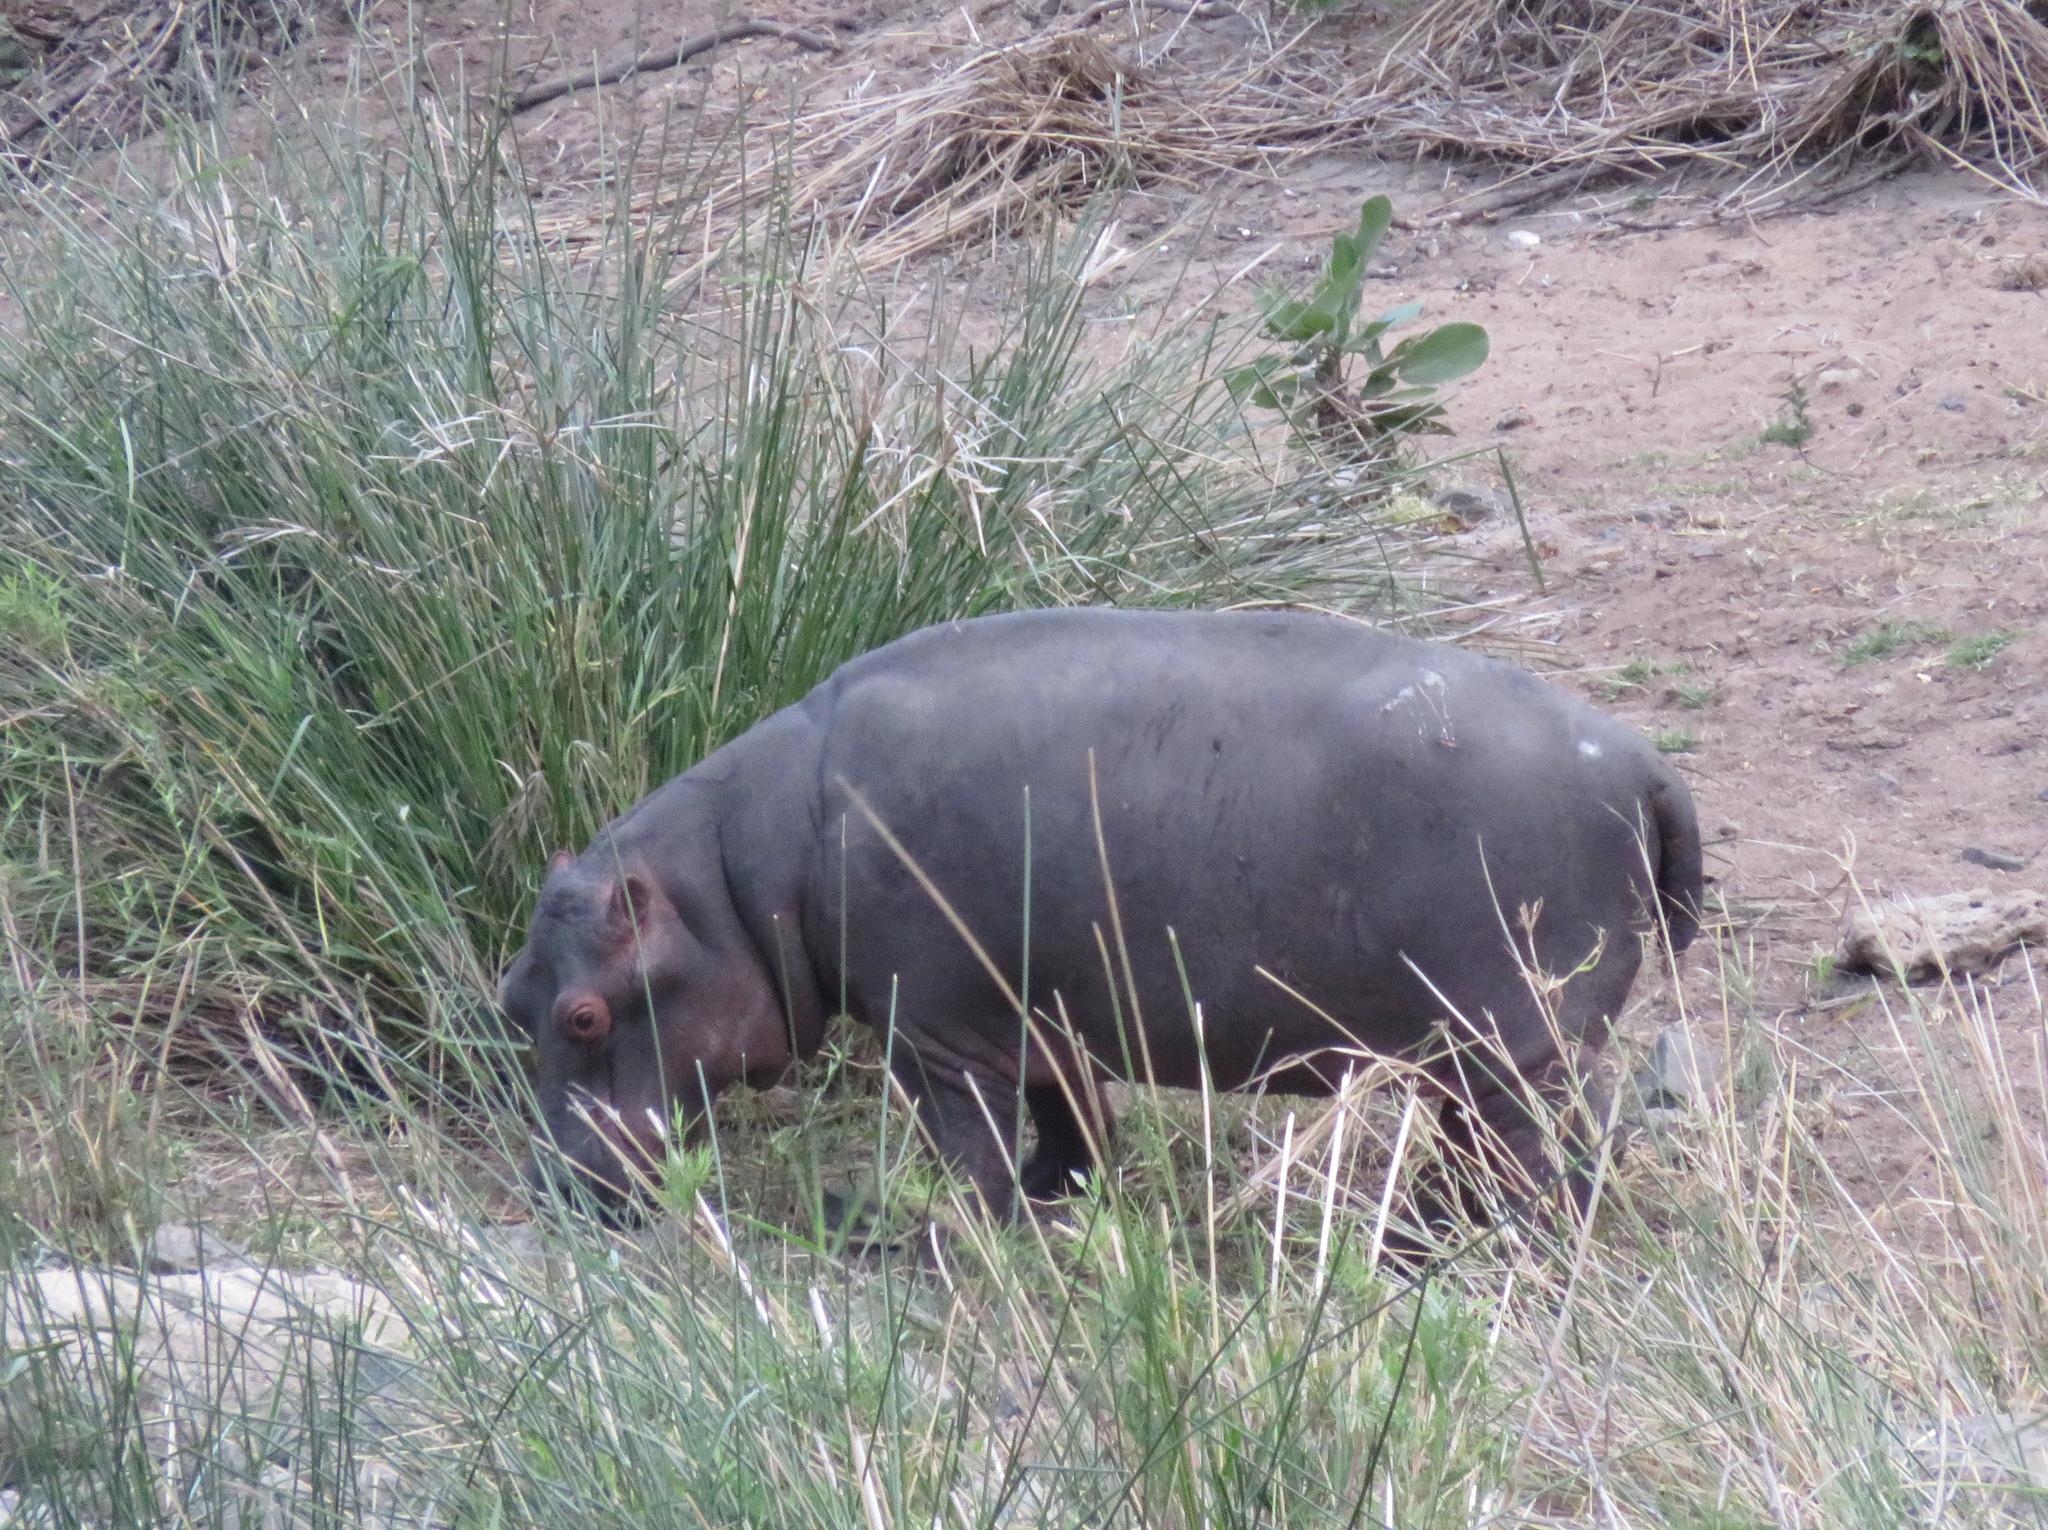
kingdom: Animalia
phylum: Chordata
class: Mammalia
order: Artiodactyla
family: Hippopotamidae
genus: Hippopotamus
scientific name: Hippopotamus amphibius
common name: Common hippopotamus
